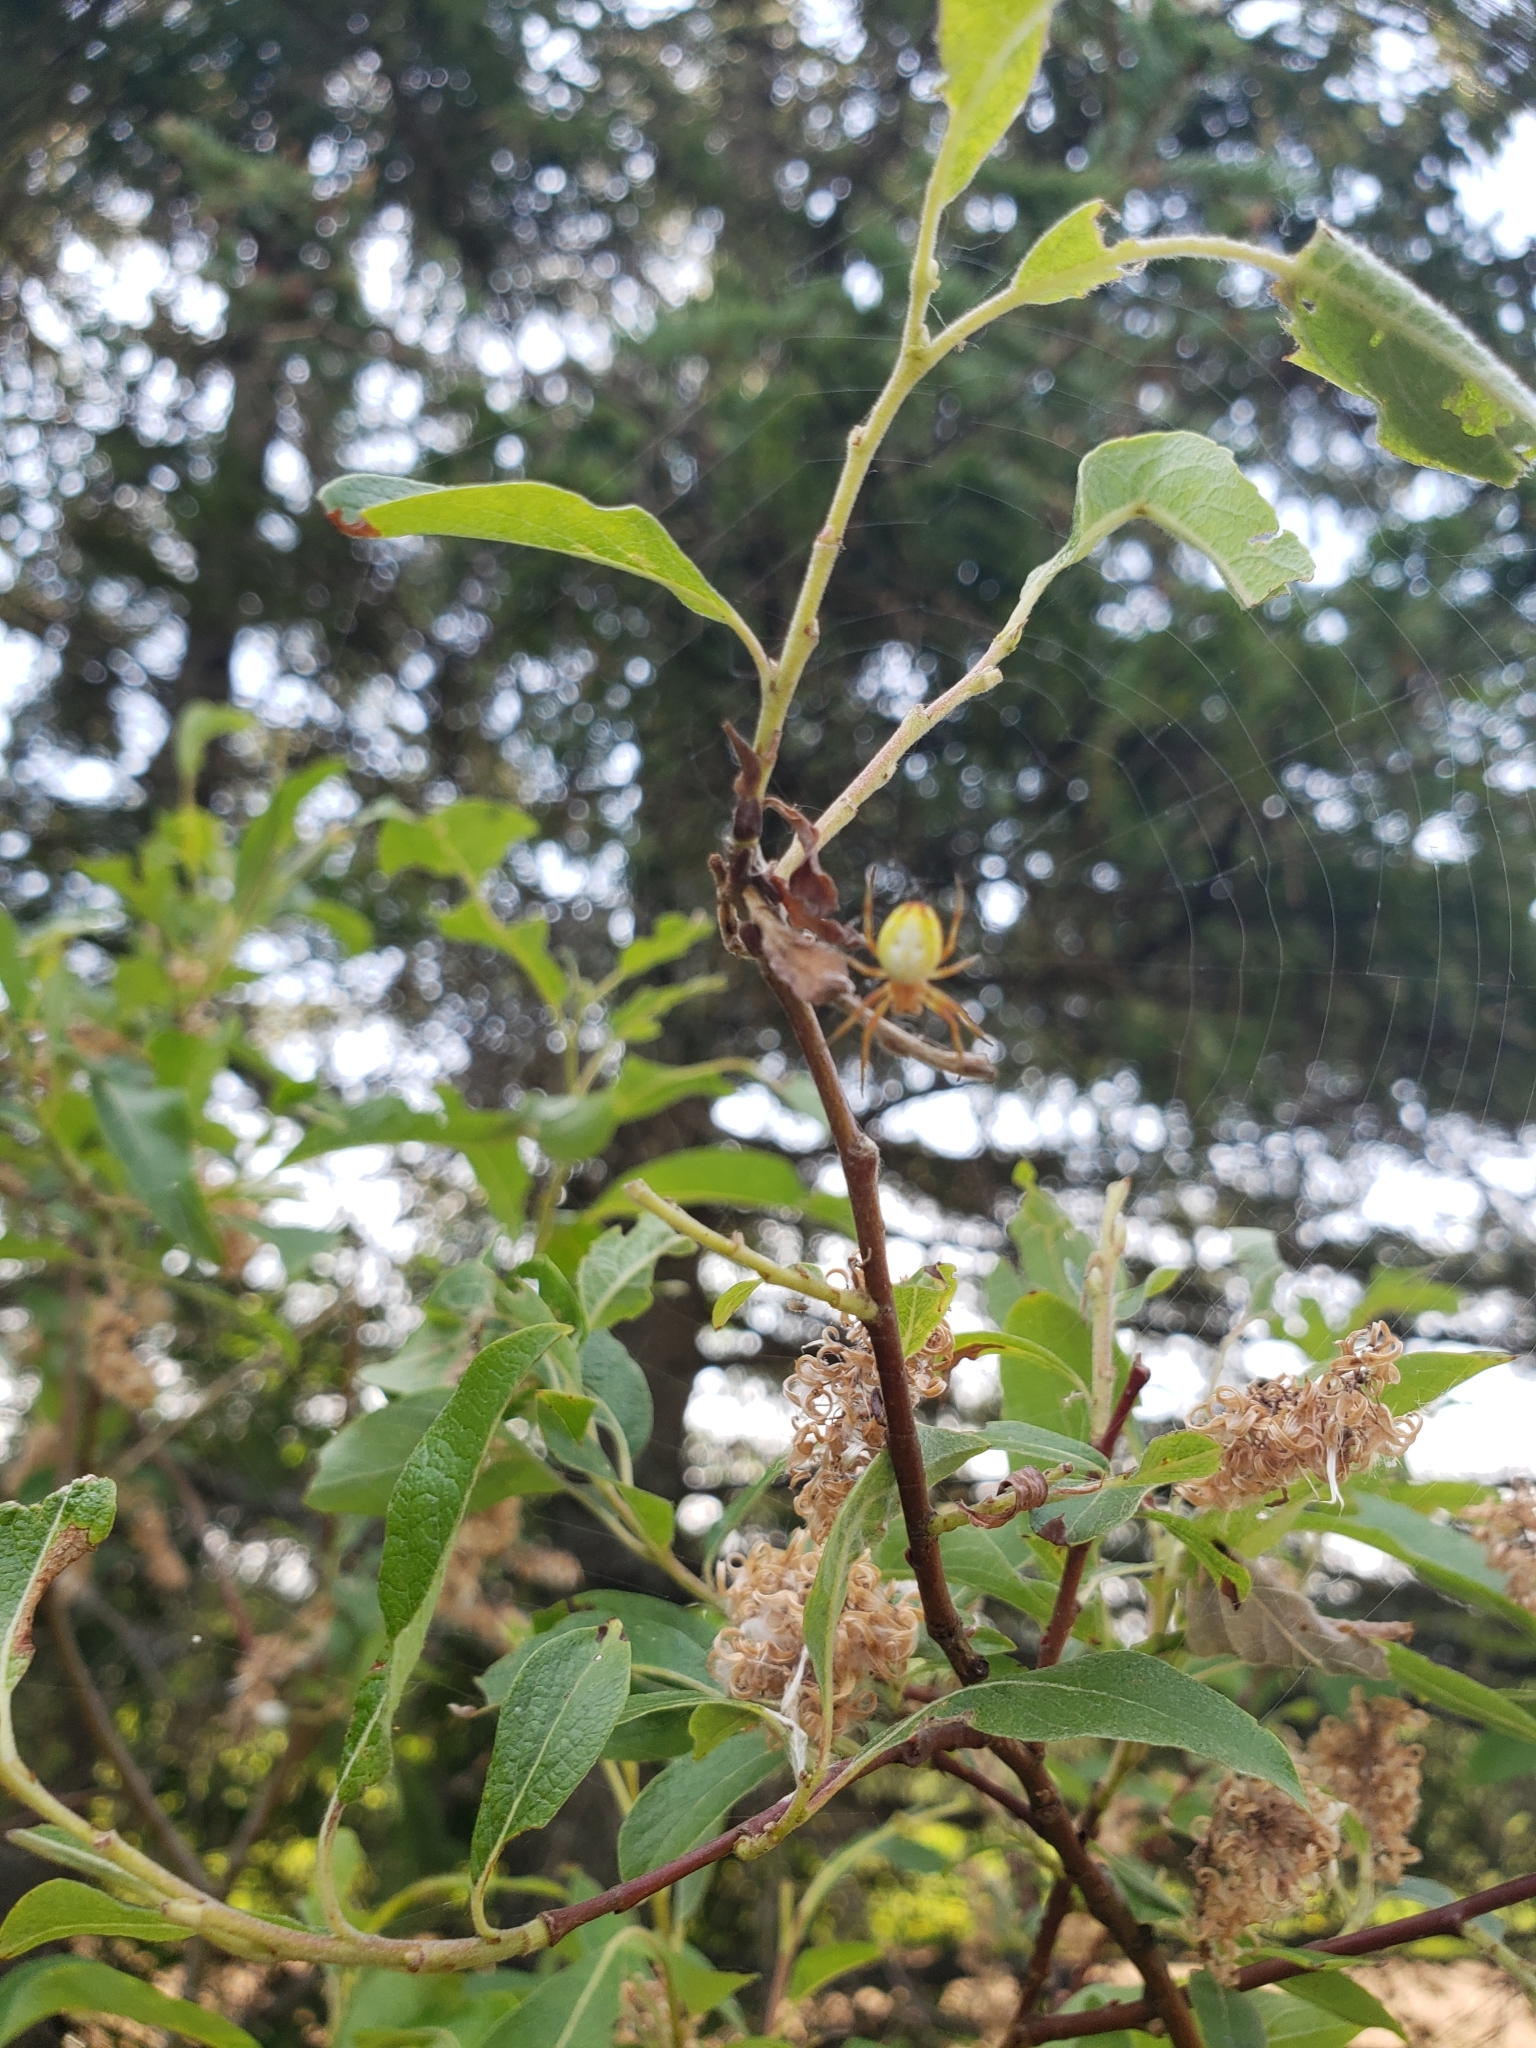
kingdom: Animalia
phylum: Arthropoda
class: Arachnida
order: Araneae
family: Araneidae
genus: Araniella
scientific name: Araniella displicata
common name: Sixspotted orb weaver
